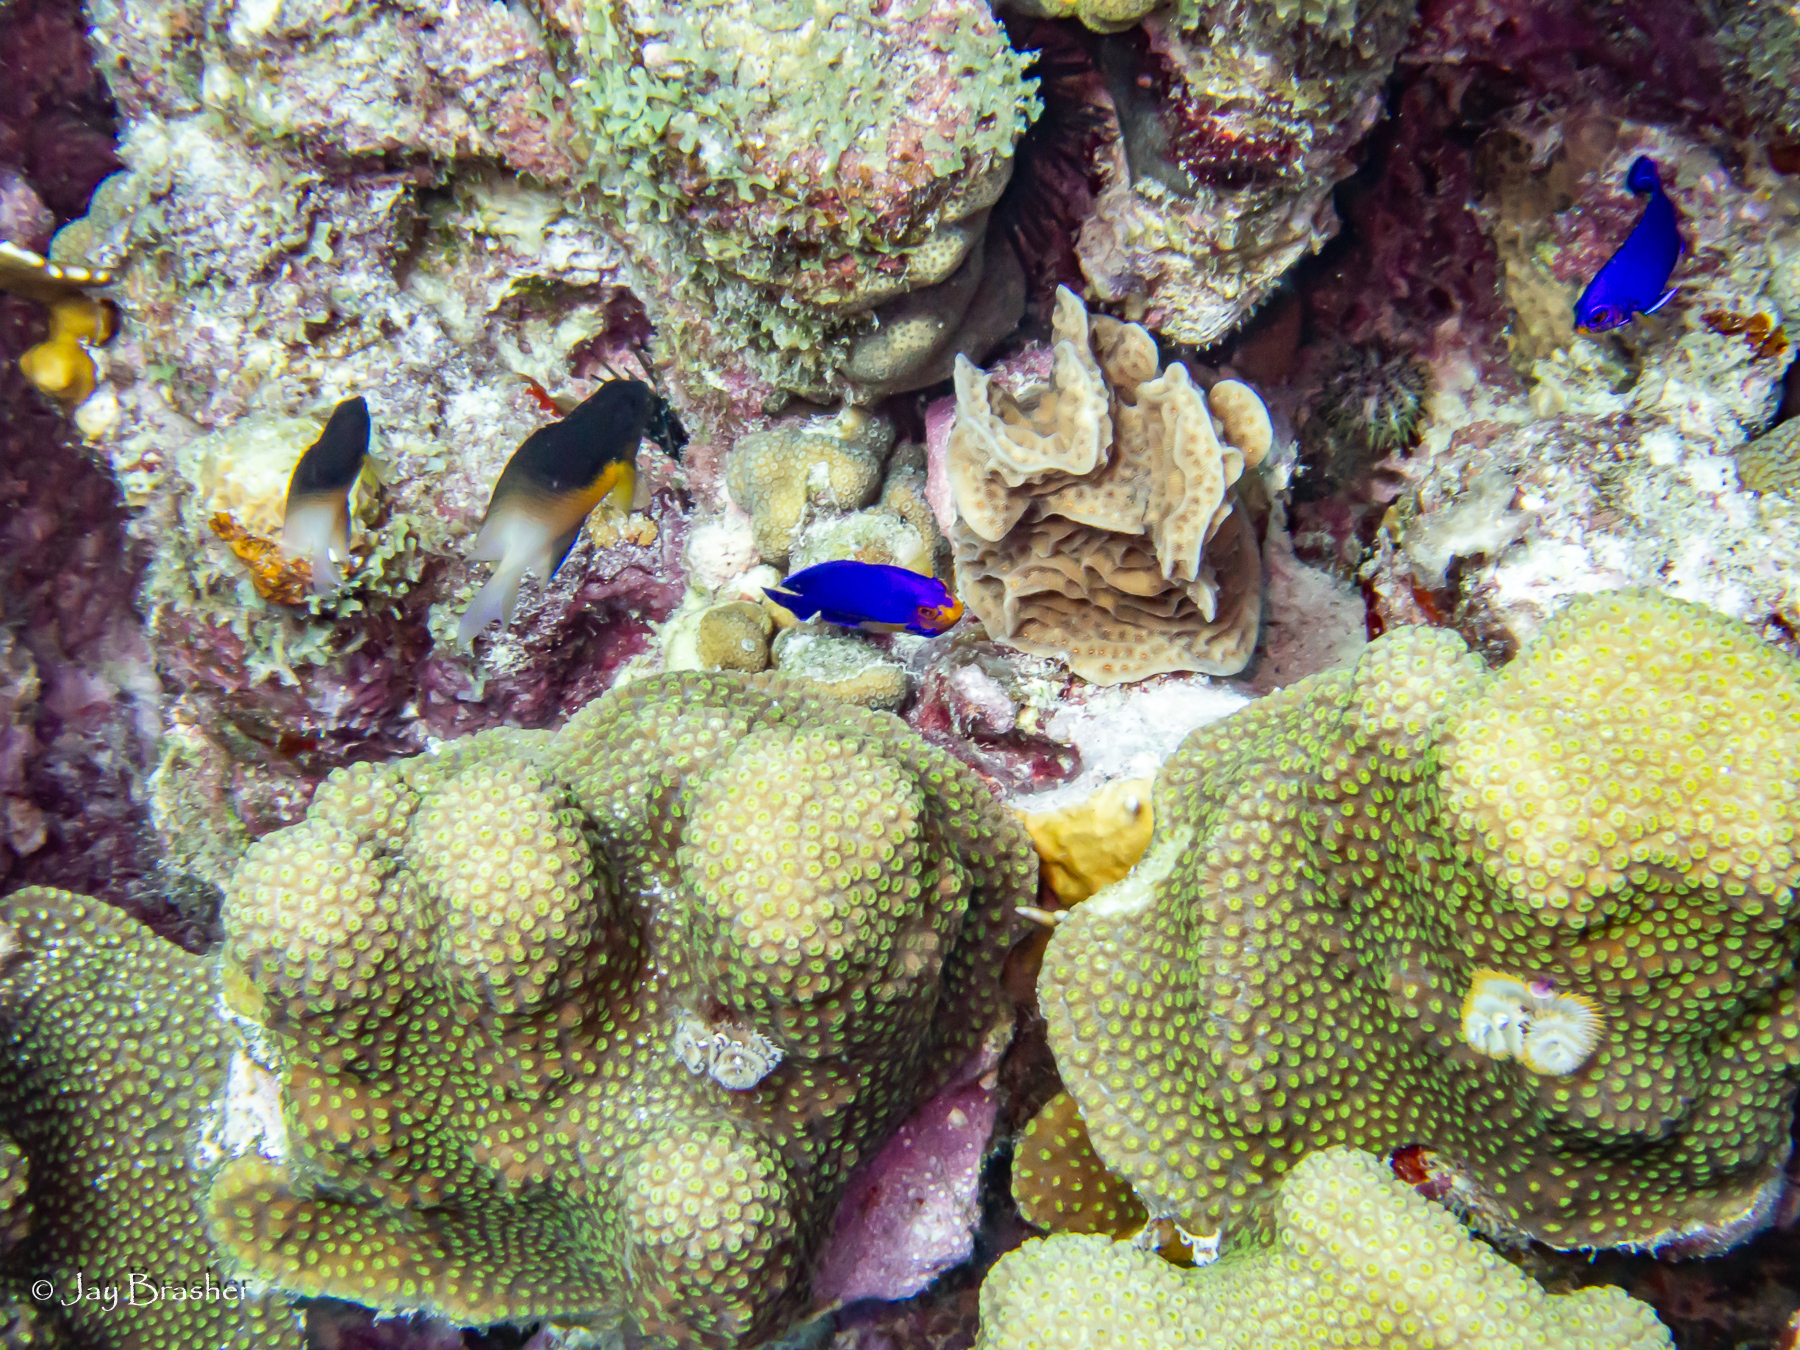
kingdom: Animalia
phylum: Chordata
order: Perciformes
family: Pomacentridae
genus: Stegastes
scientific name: Stegastes partitus
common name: Bicolor damselfish
